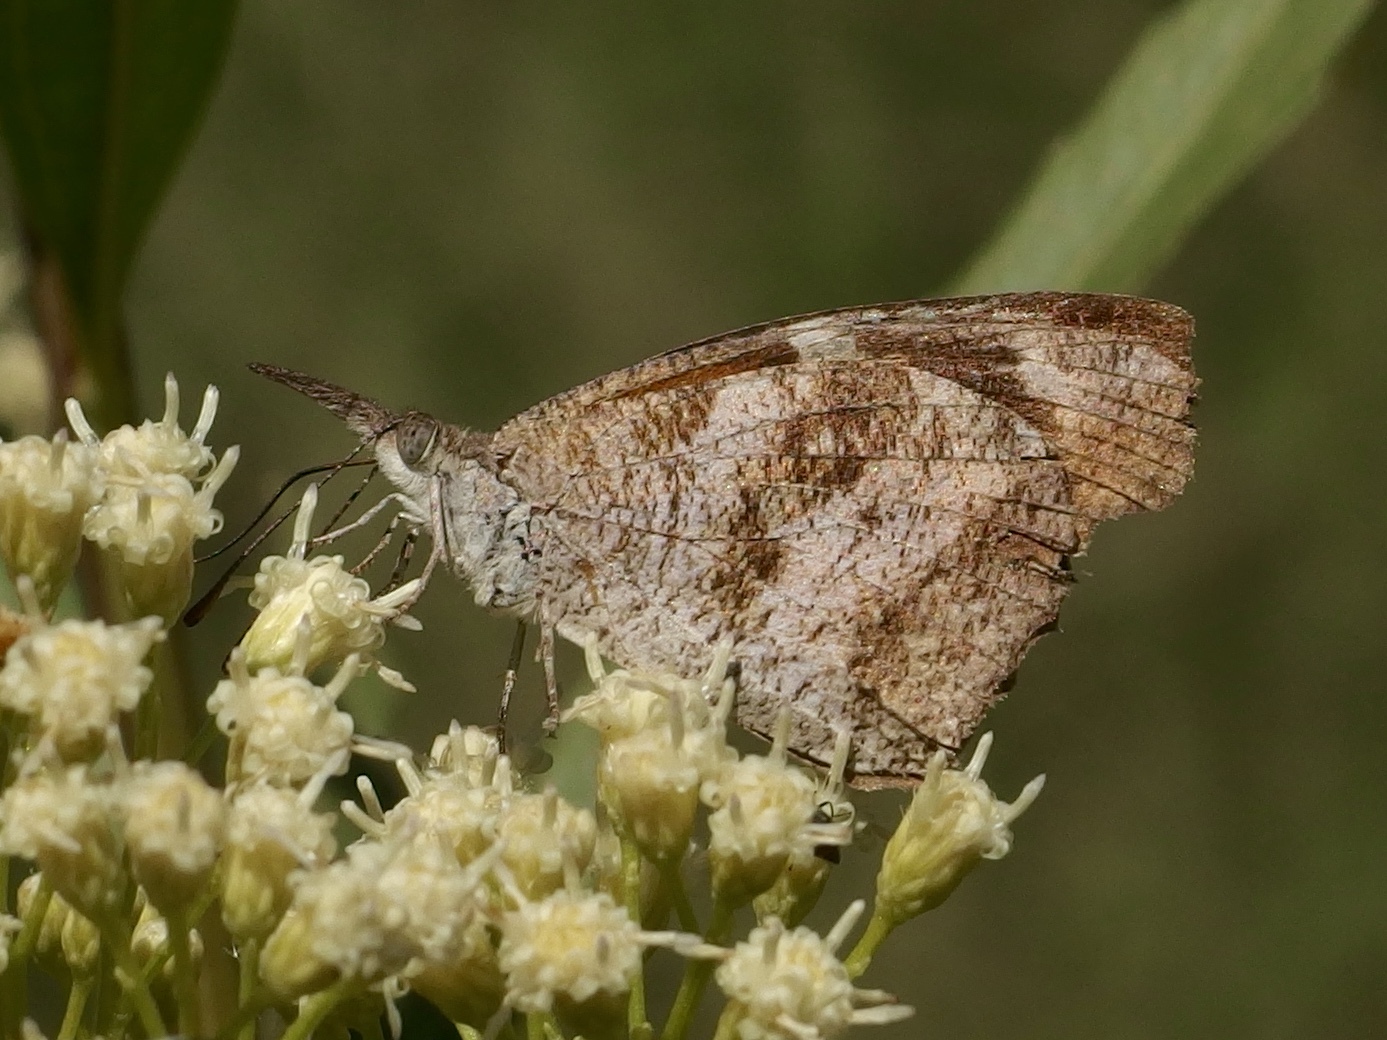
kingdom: Animalia
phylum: Arthropoda
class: Insecta
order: Lepidoptera
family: Nymphalidae
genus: Libytheana
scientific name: Libytheana carinenta
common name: American snout
